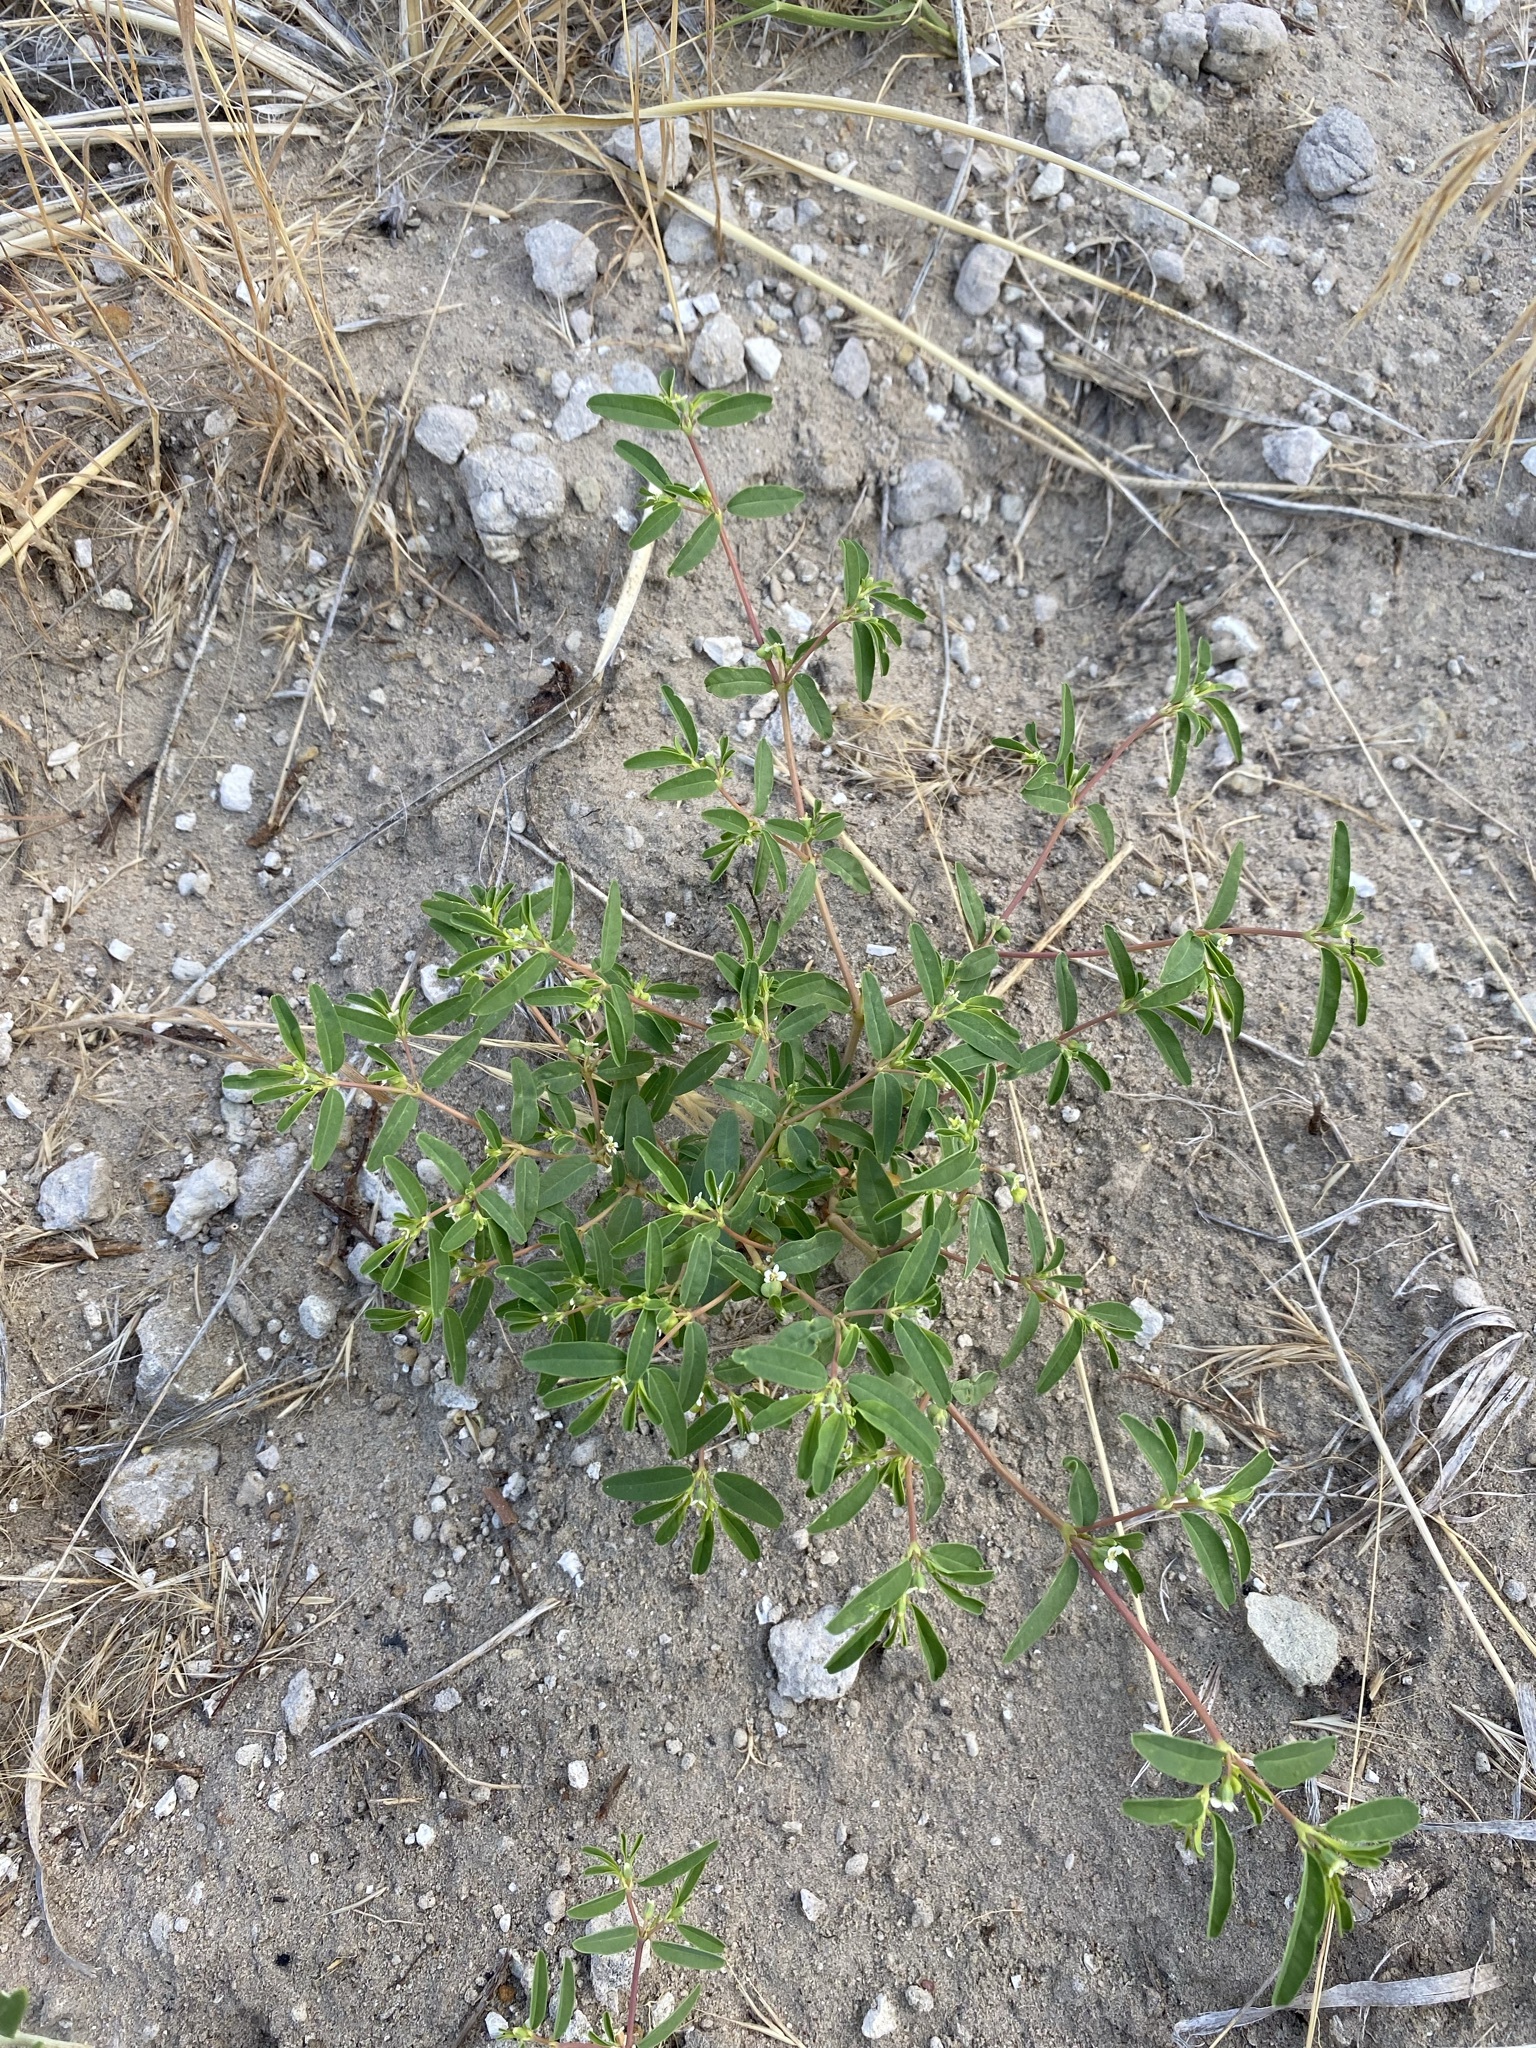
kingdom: Plantae
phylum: Tracheophyta
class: Magnoliopsida
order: Malpighiales
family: Euphorbiaceae
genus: Euphorbia
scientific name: Euphorbia missurica
